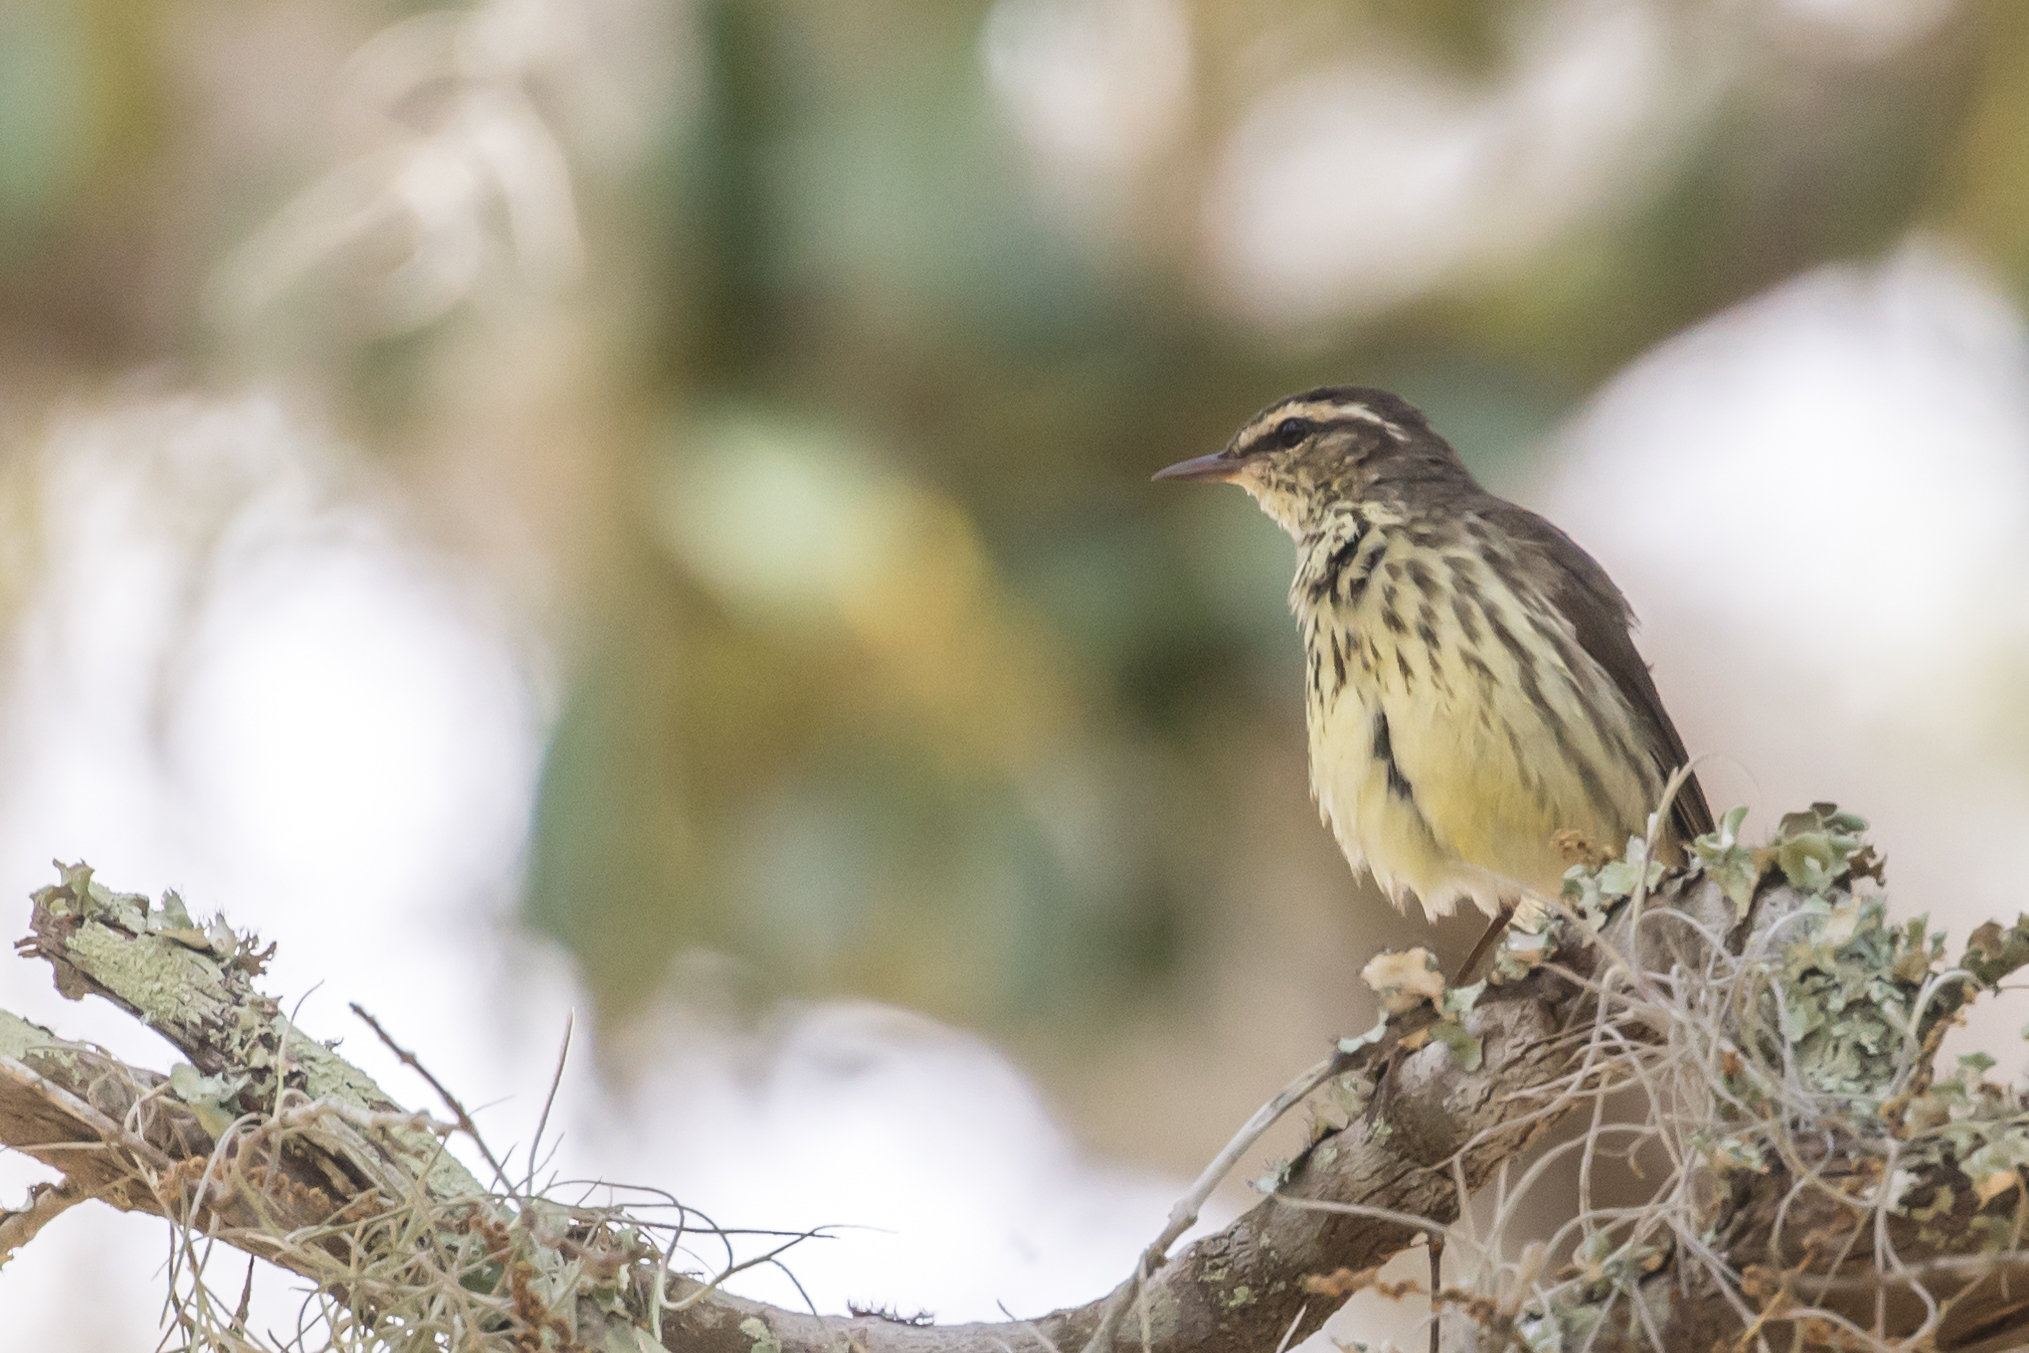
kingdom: Animalia
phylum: Chordata
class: Aves
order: Passeriformes
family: Parulidae
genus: Parkesia
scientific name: Parkesia noveboracensis
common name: Northern waterthrush
